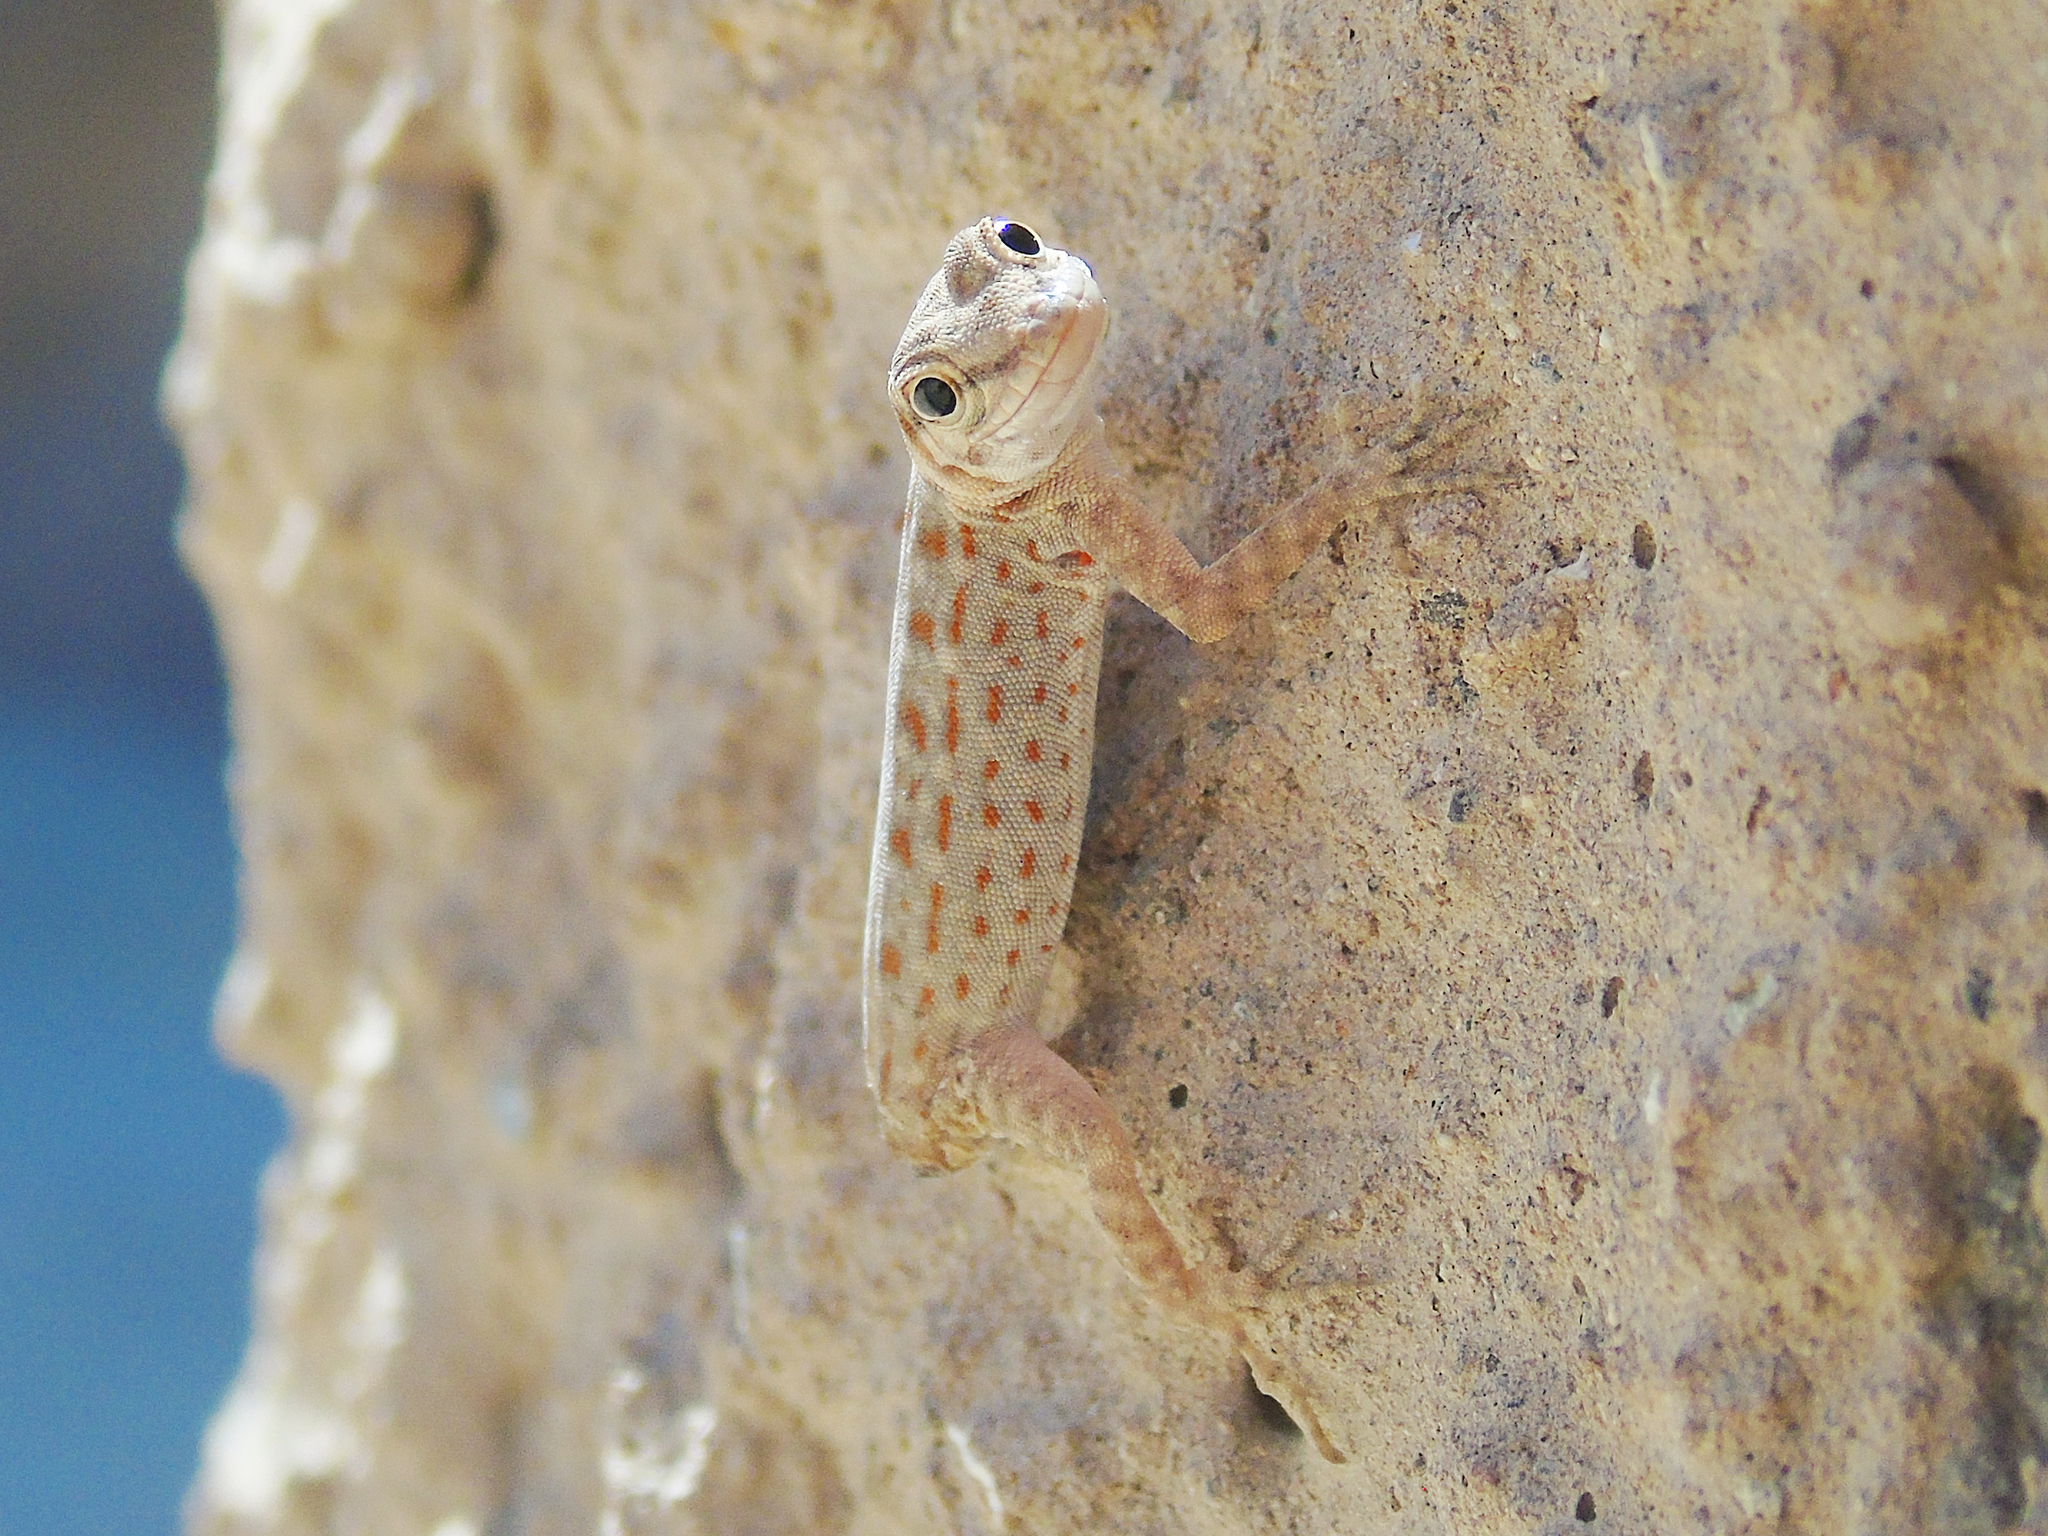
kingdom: Animalia
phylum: Chordata
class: Squamata
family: Sphaerodactylidae
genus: Pristurus
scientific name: Pristurus rupestris
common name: Blanford’s semaphore gecko
